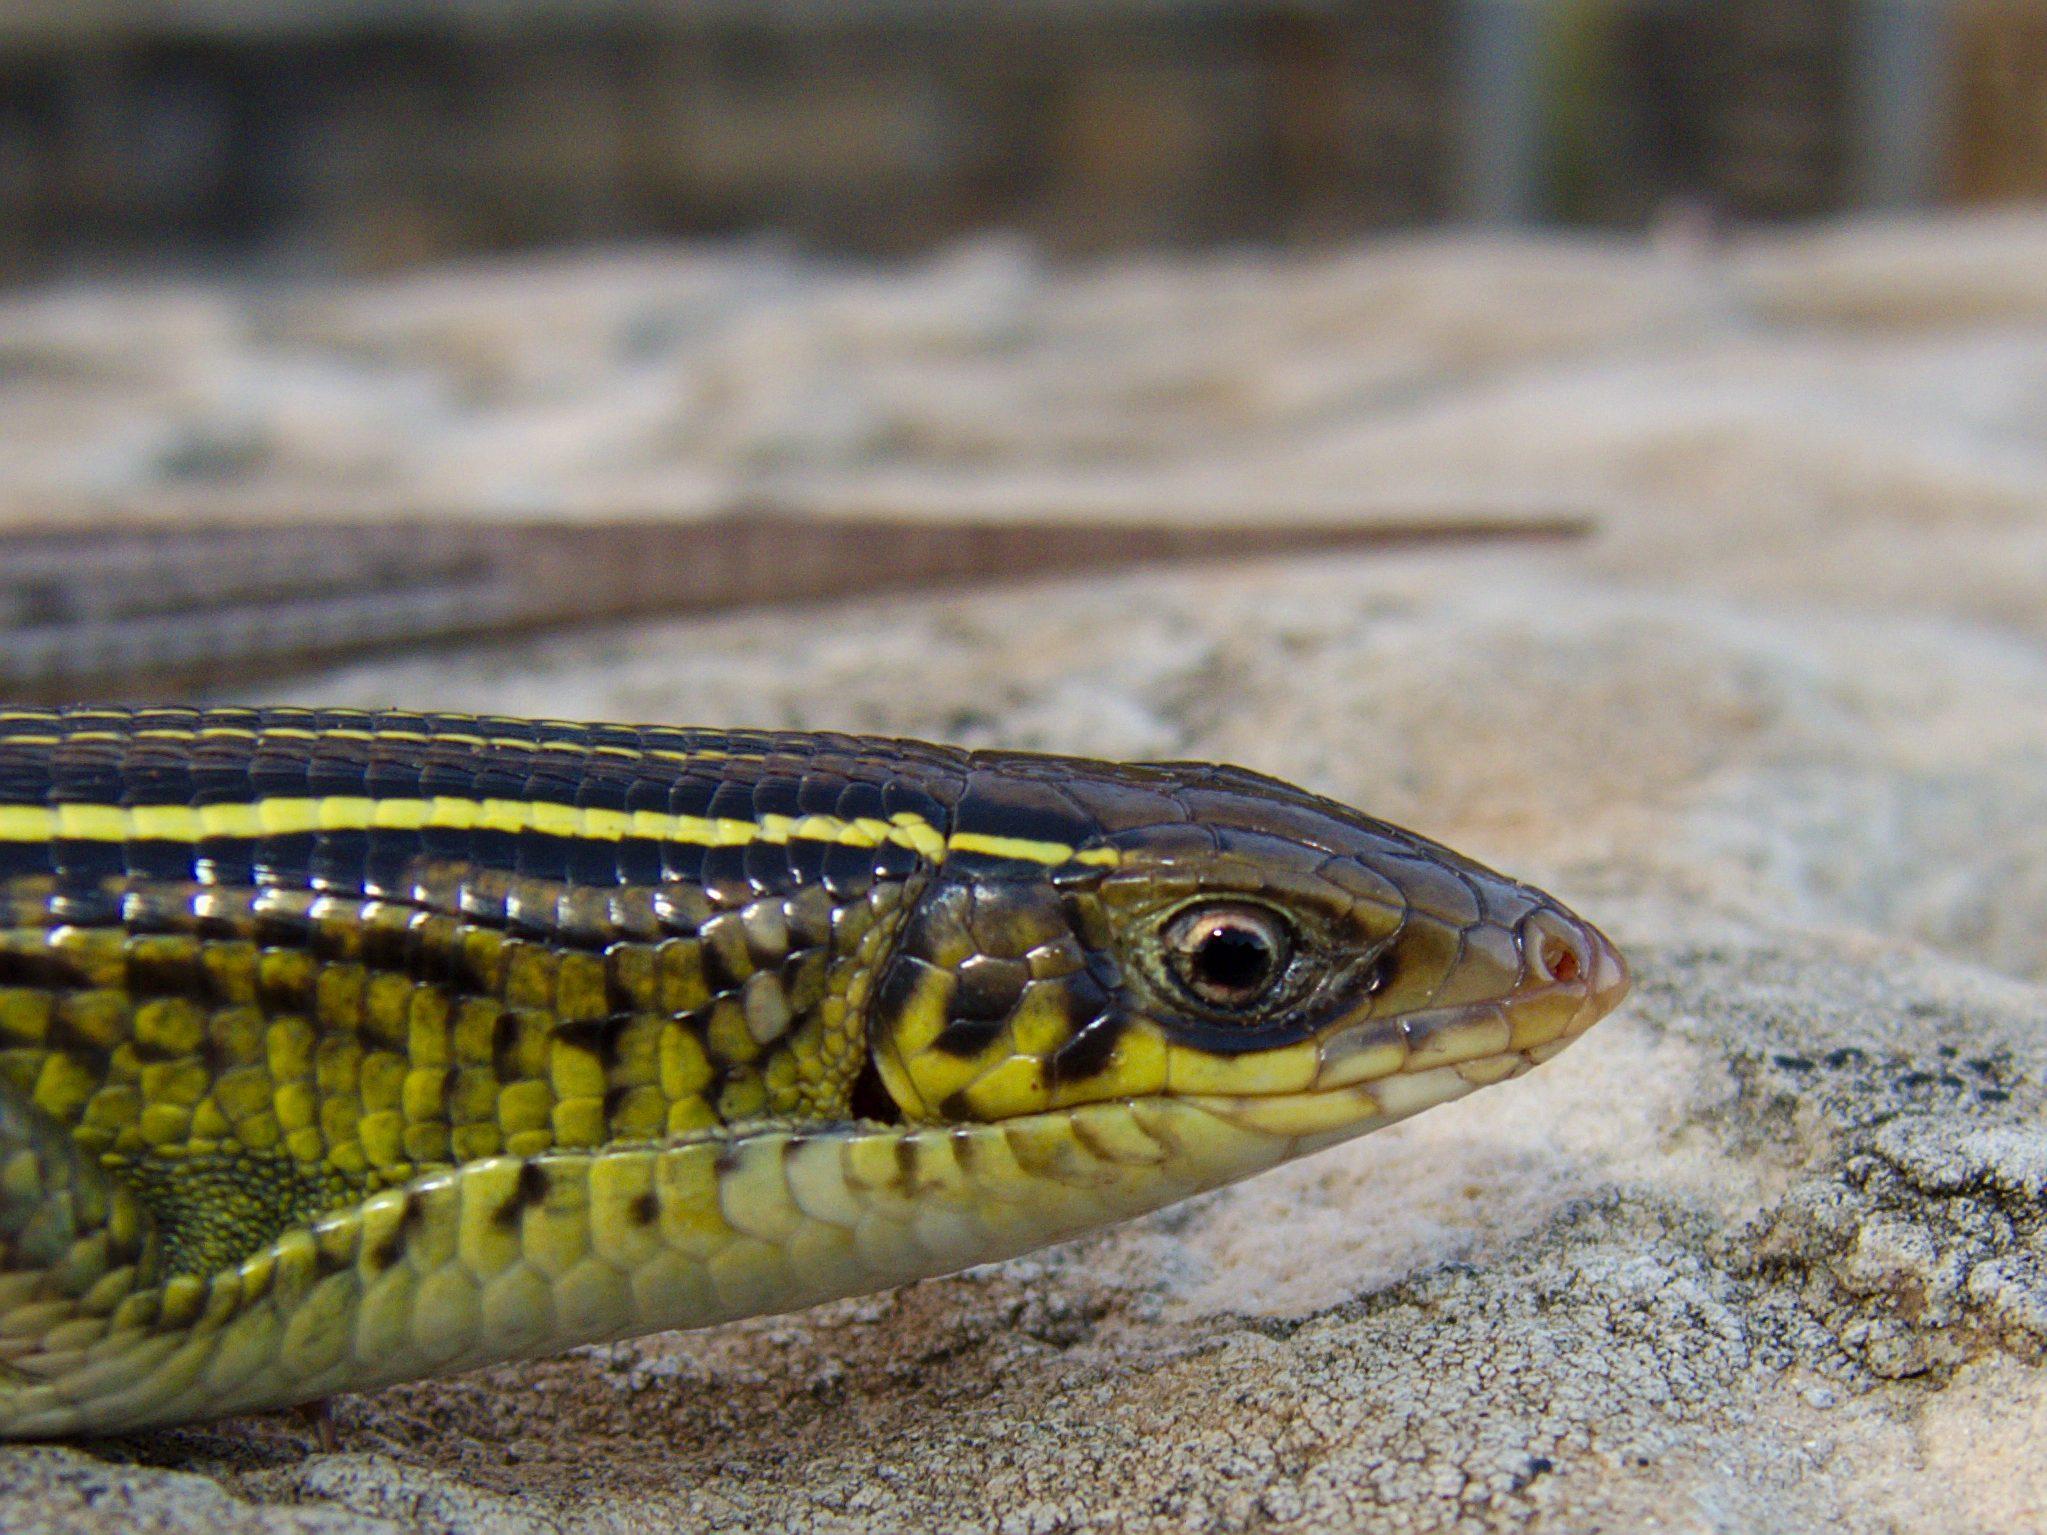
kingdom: Animalia
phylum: Chordata
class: Squamata
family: Gerrhosauridae
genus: Gerrhosaurus
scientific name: Gerrhosaurus flavigularis
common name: Yellow-throated plated lizard
